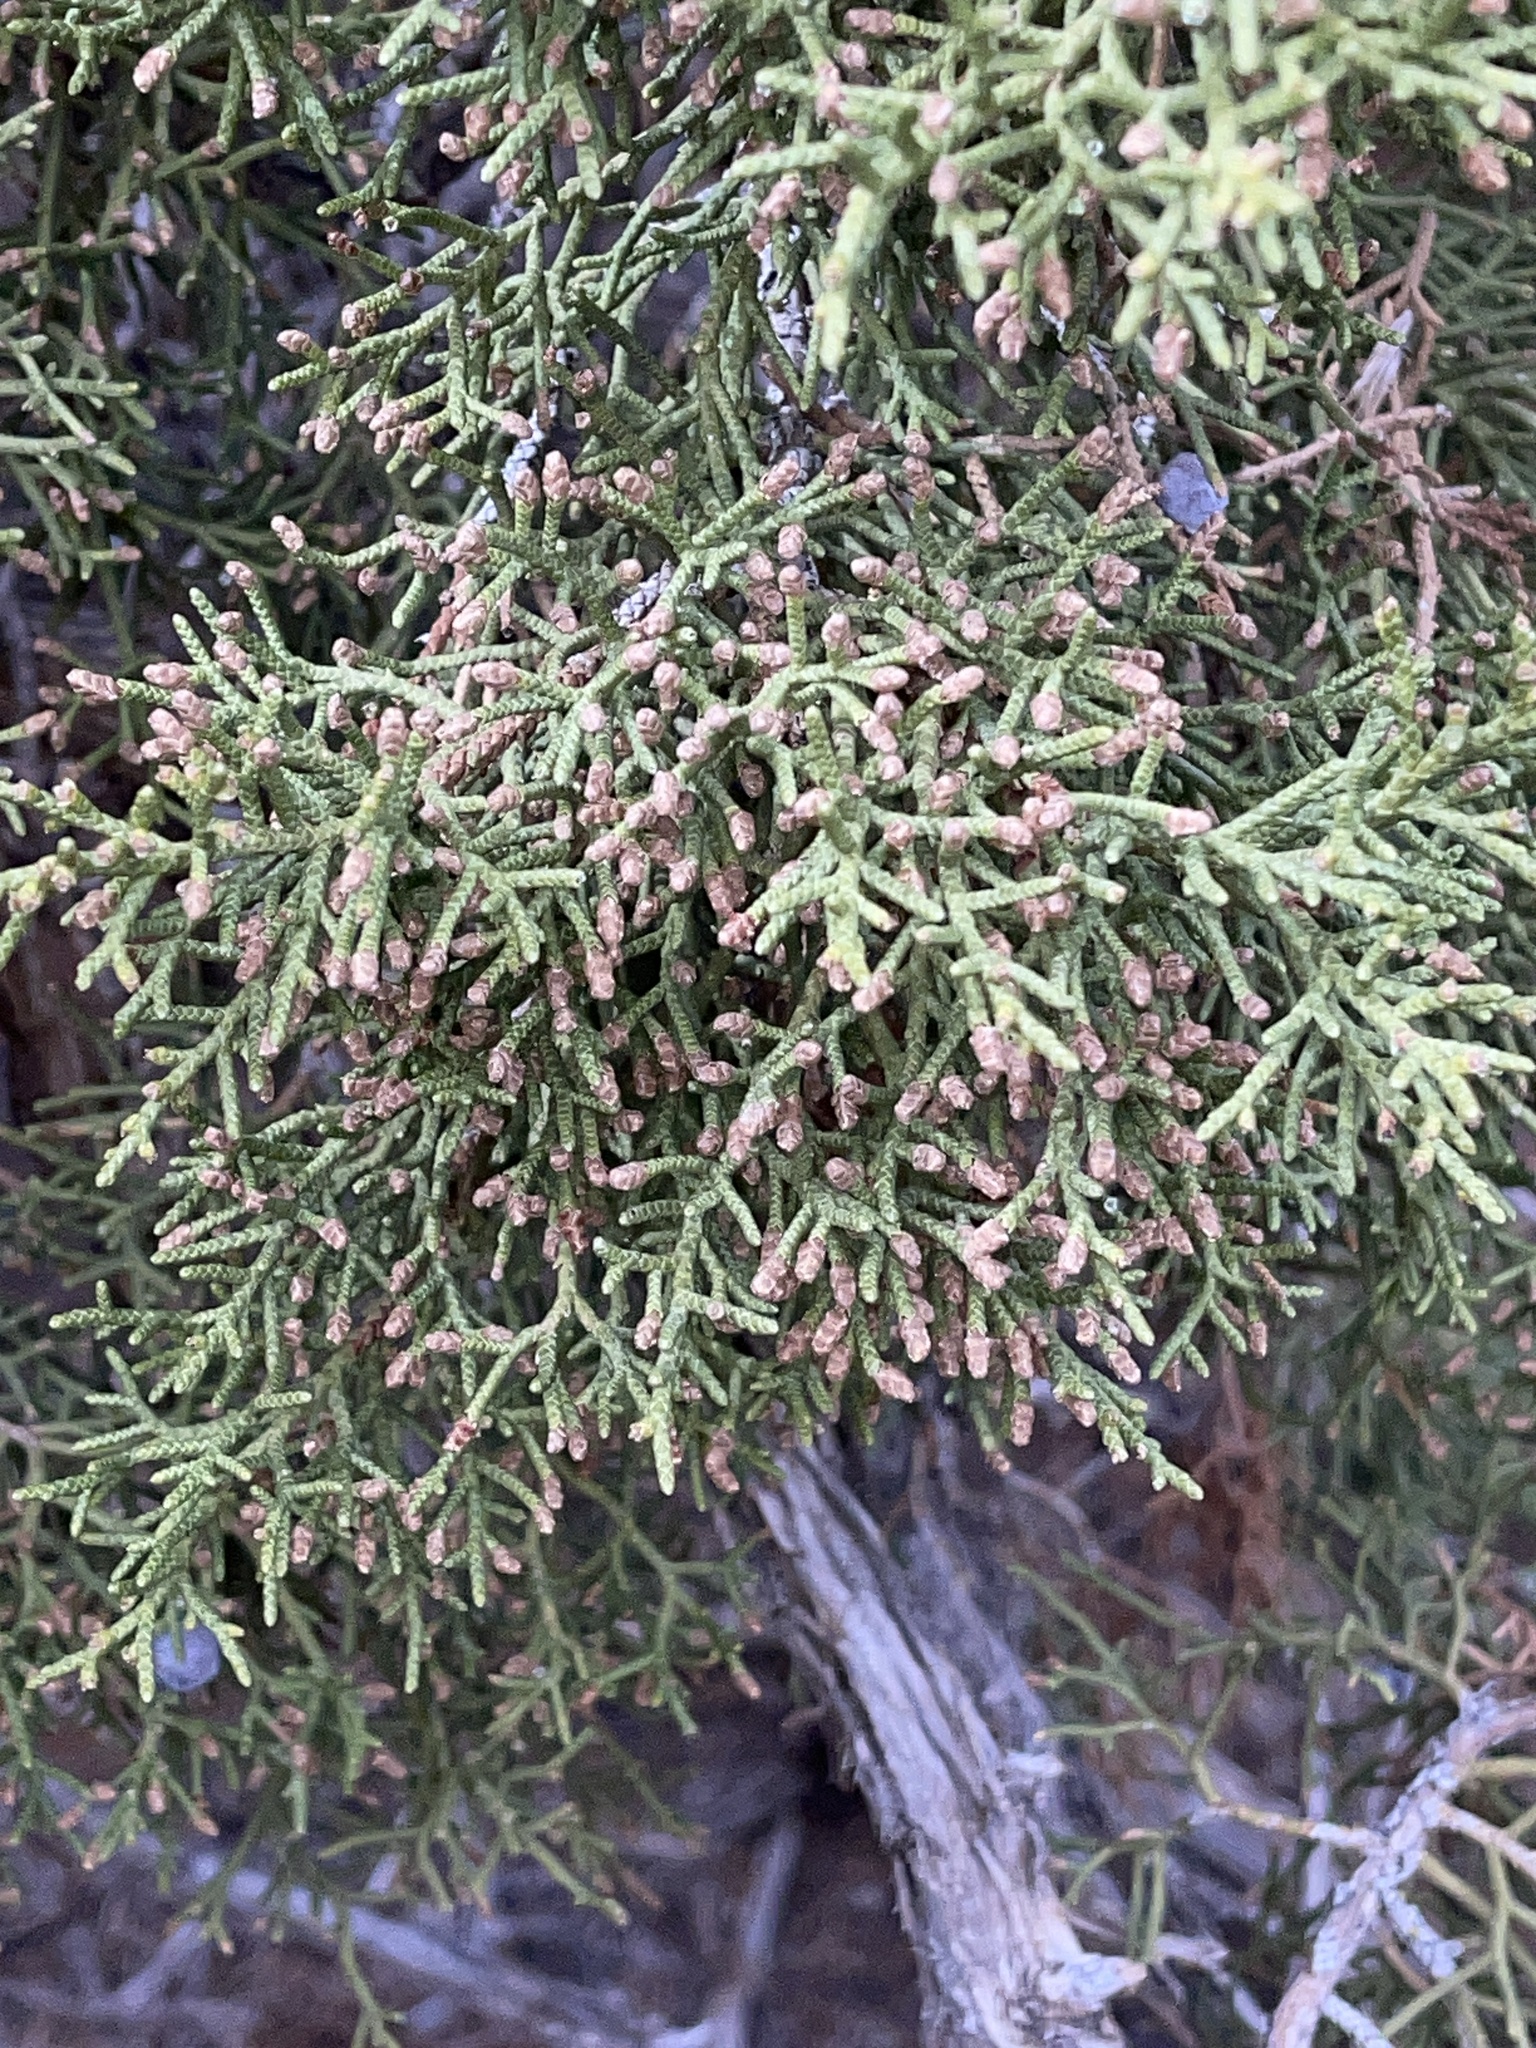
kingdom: Plantae
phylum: Tracheophyta
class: Pinopsida
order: Pinales
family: Cupressaceae
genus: Juniperus
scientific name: Juniperus osteosperma
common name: Utah juniper
